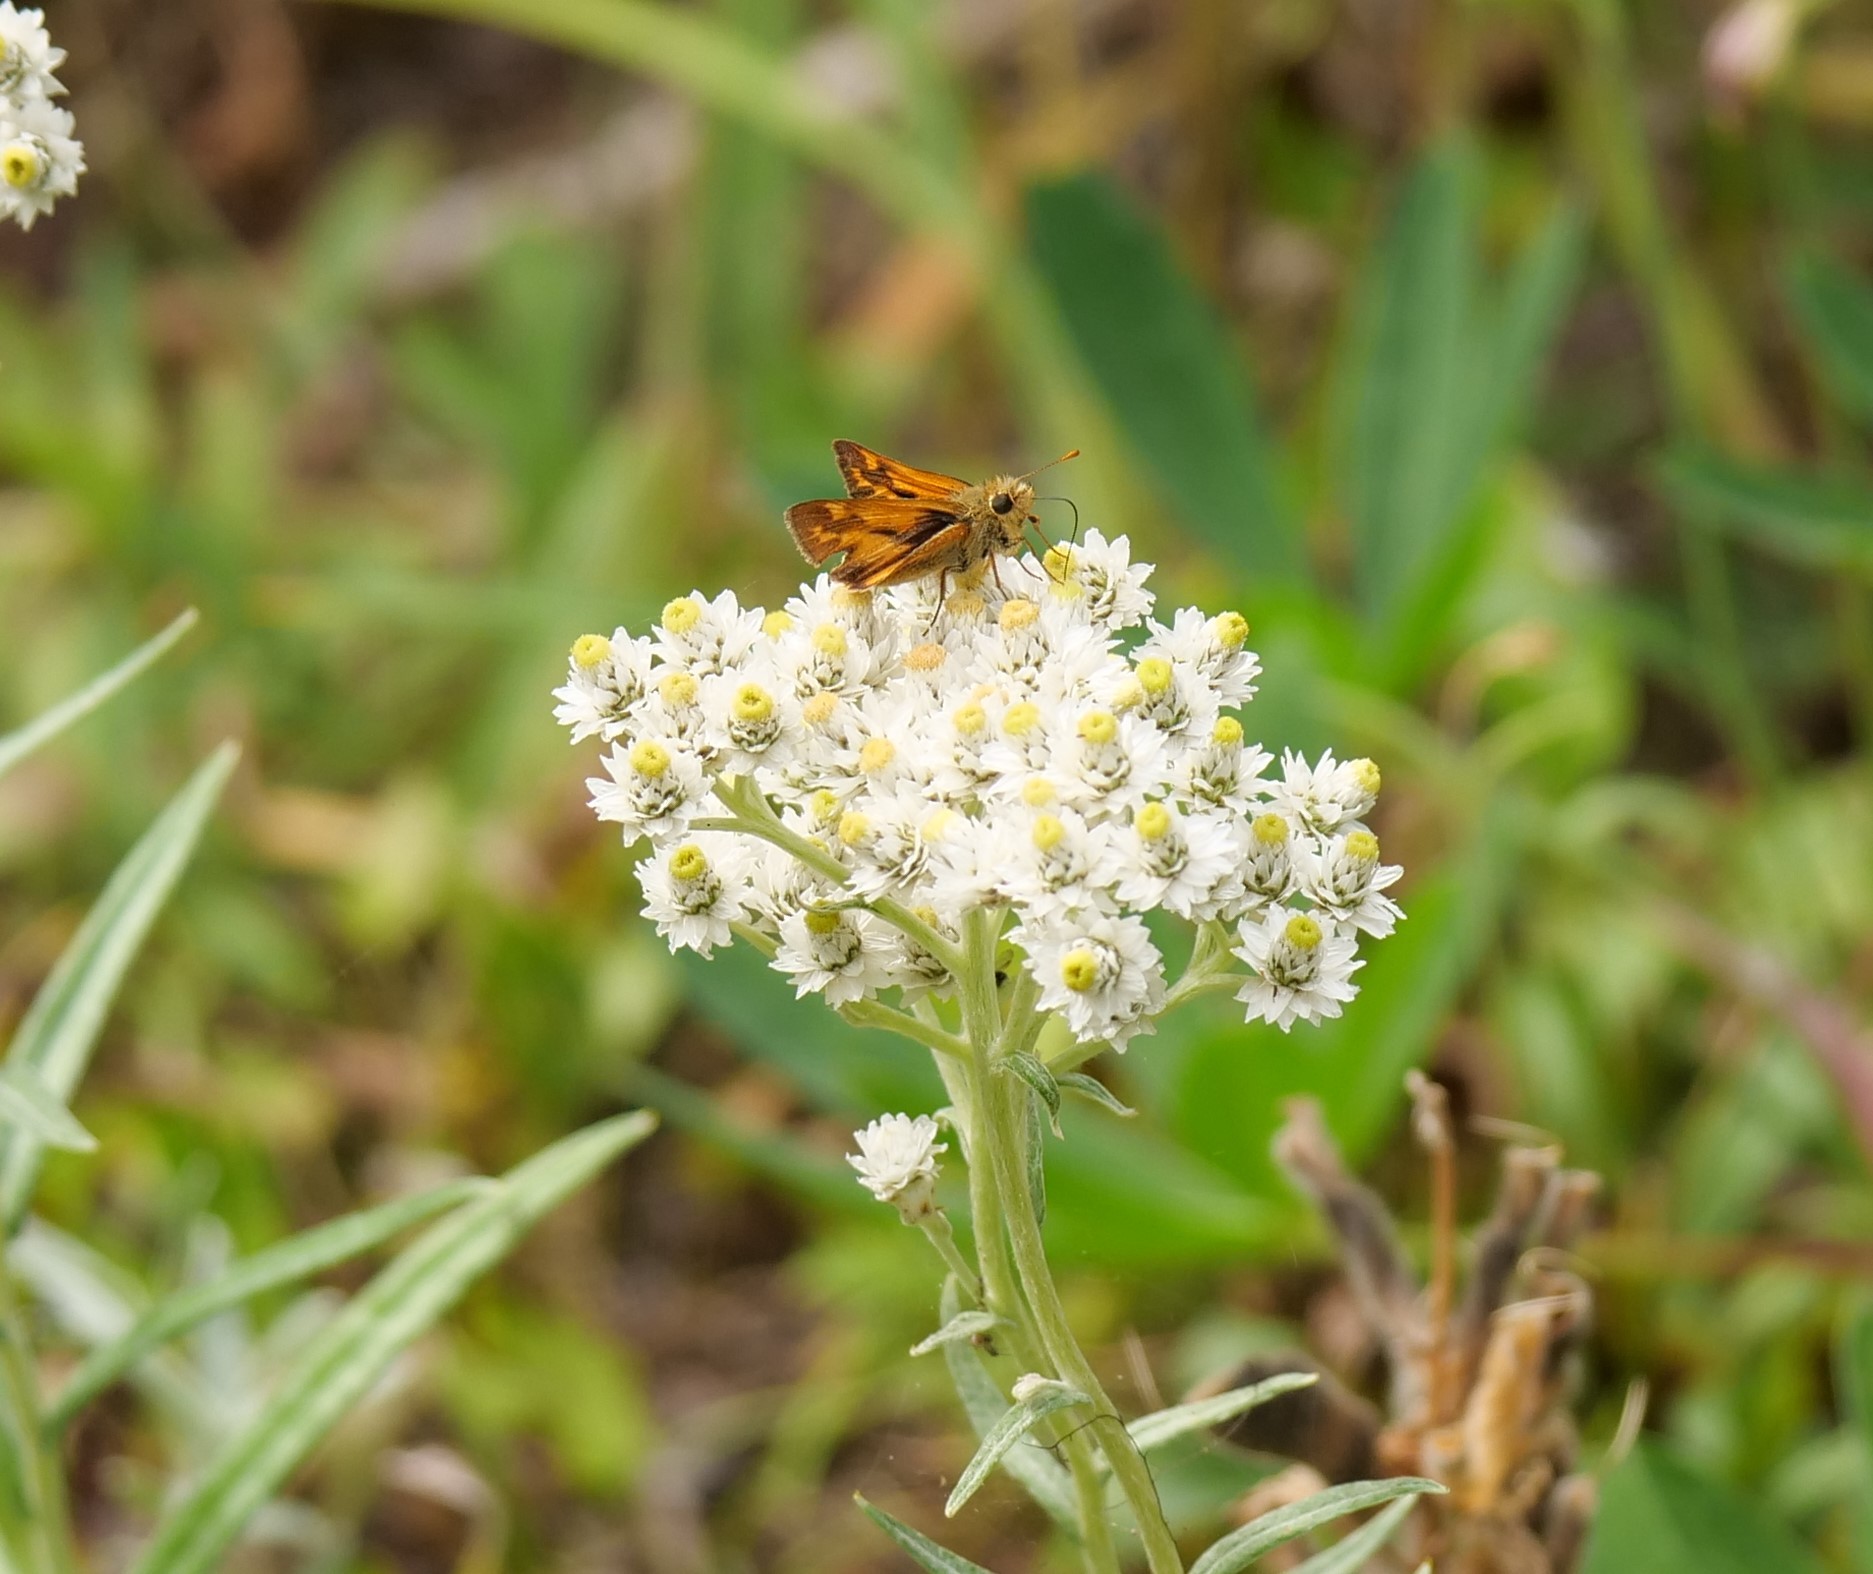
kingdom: Animalia
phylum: Arthropoda
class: Insecta
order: Lepidoptera
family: Hesperiidae
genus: Ochlodes
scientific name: Ochlodes sylvanoides
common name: Woodland skipper
